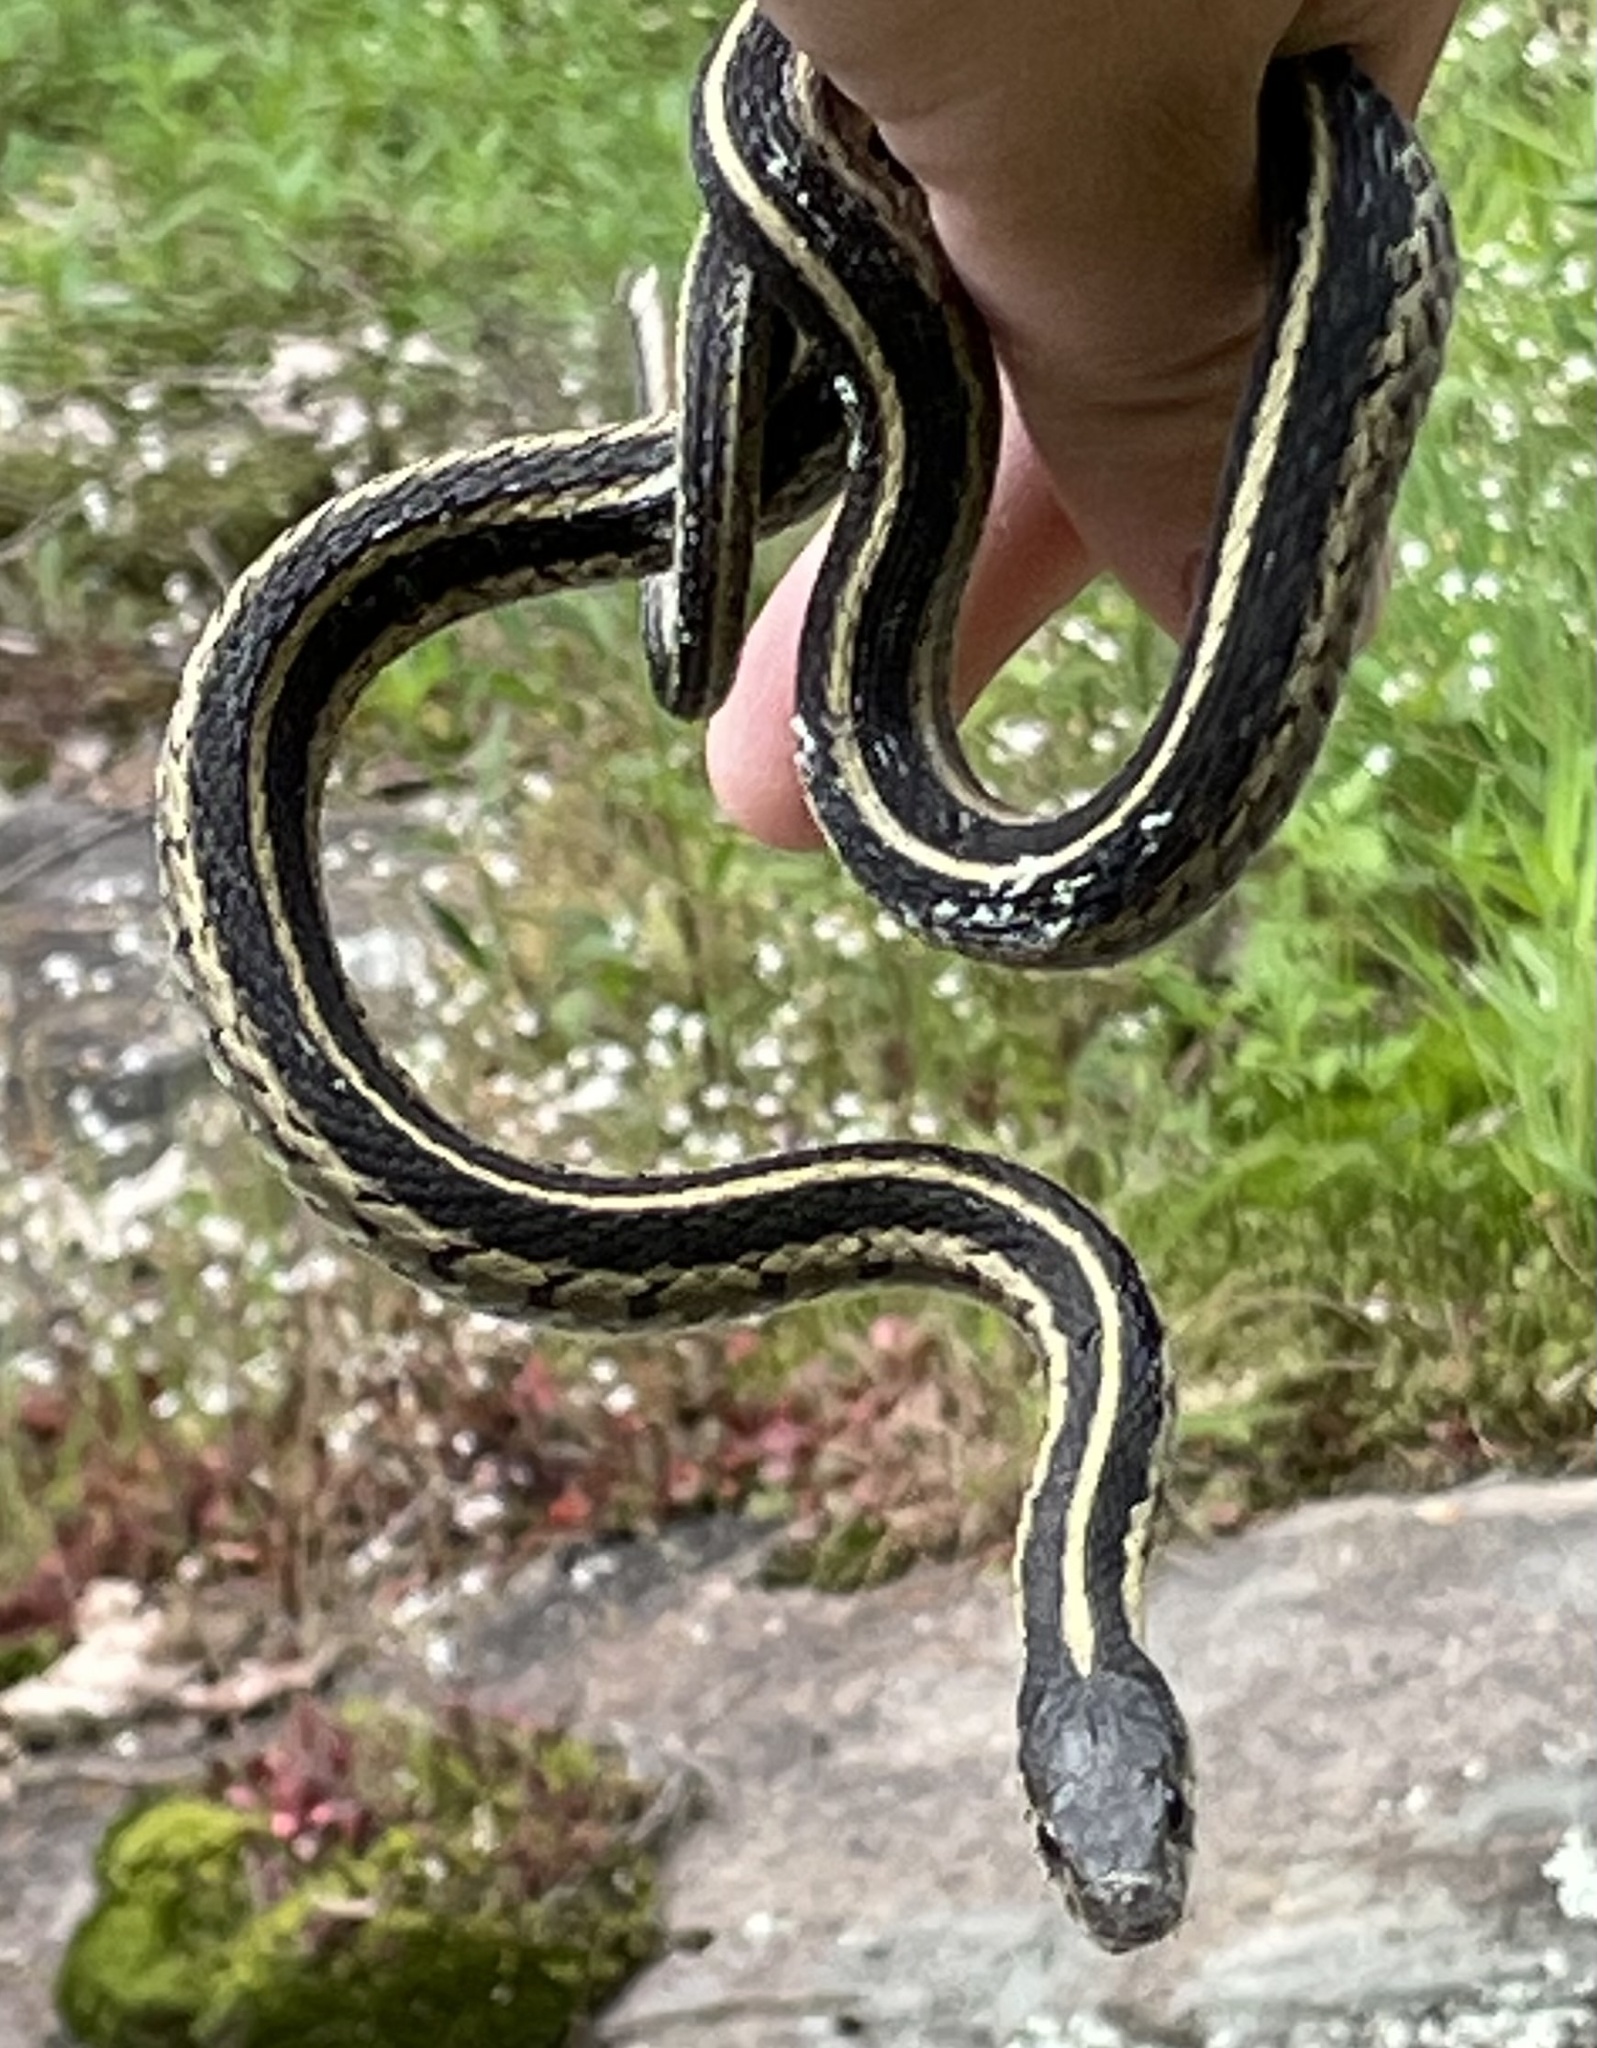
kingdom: Animalia
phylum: Chordata
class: Squamata
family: Colubridae
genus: Thamnophis
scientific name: Thamnophis sirtalis
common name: Common garter snake
